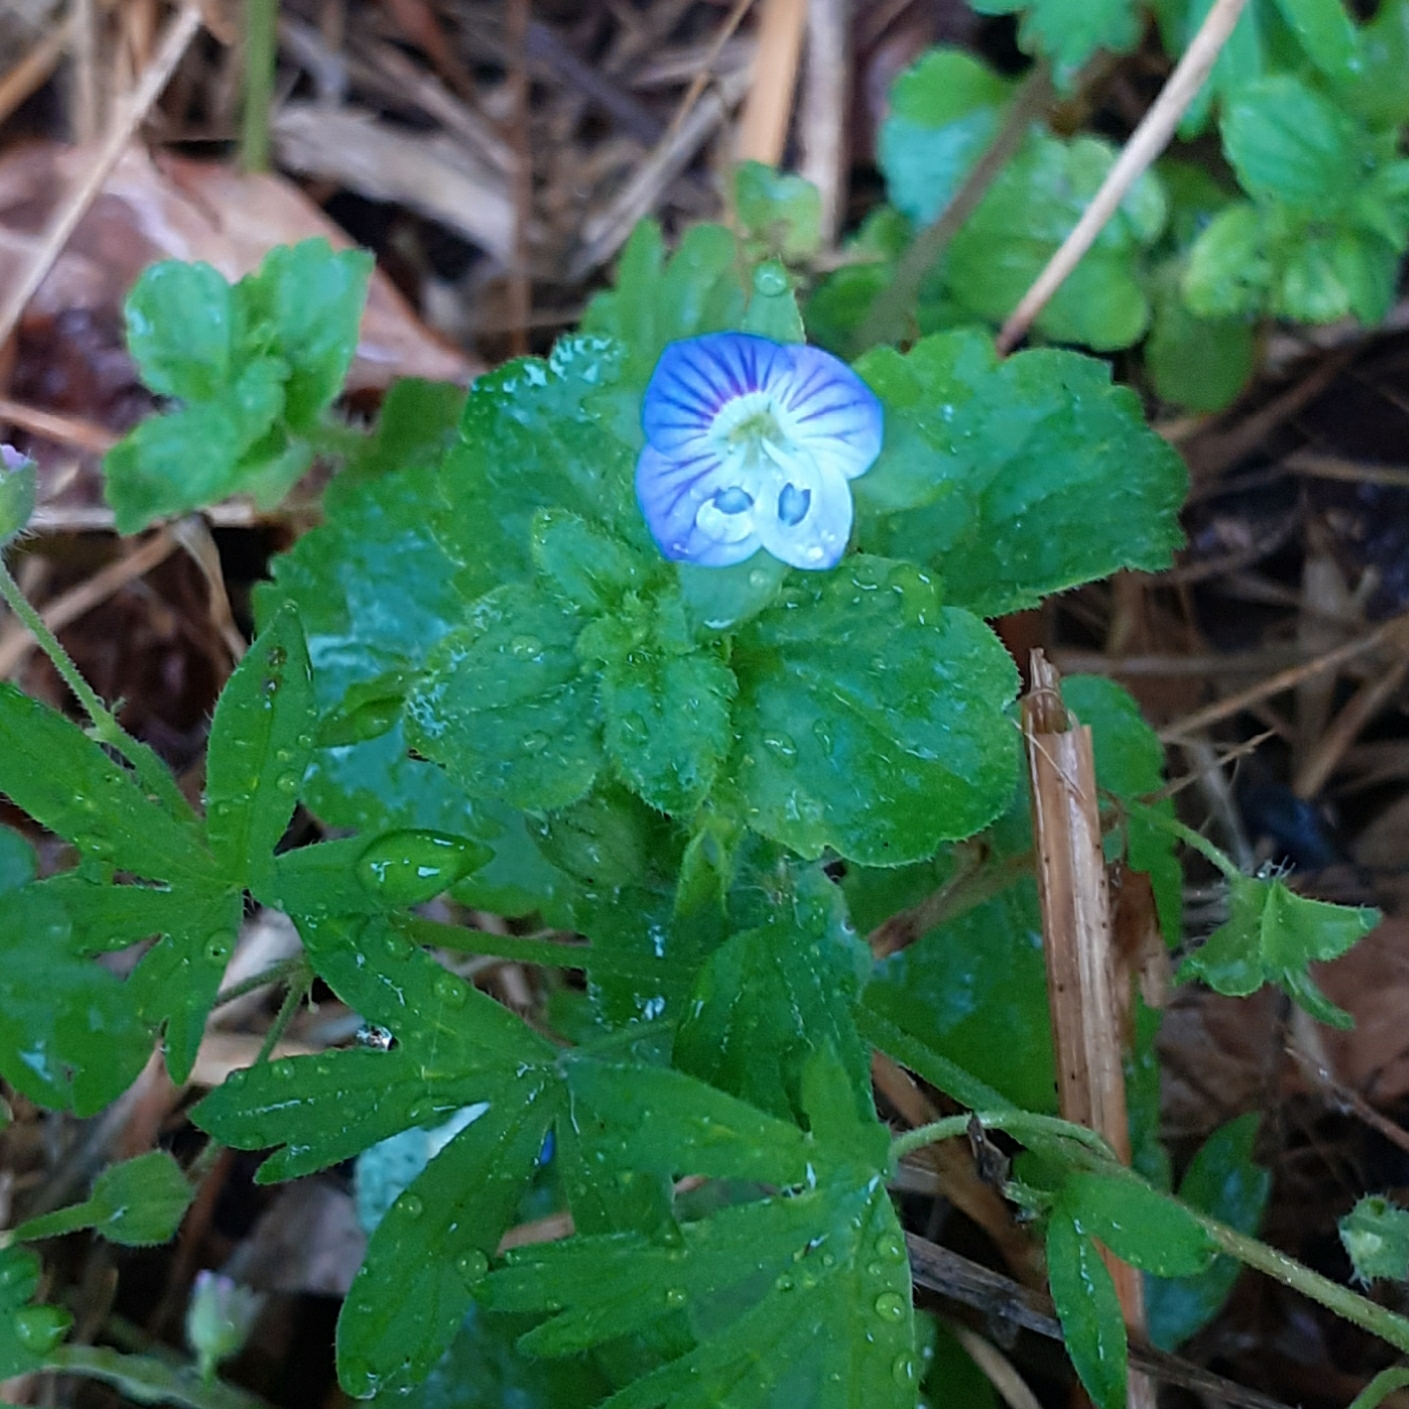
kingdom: Plantae
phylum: Tracheophyta
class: Magnoliopsida
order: Lamiales
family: Plantaginaceae
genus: Veronica
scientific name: Veronica persica
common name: Common field-speedwell
